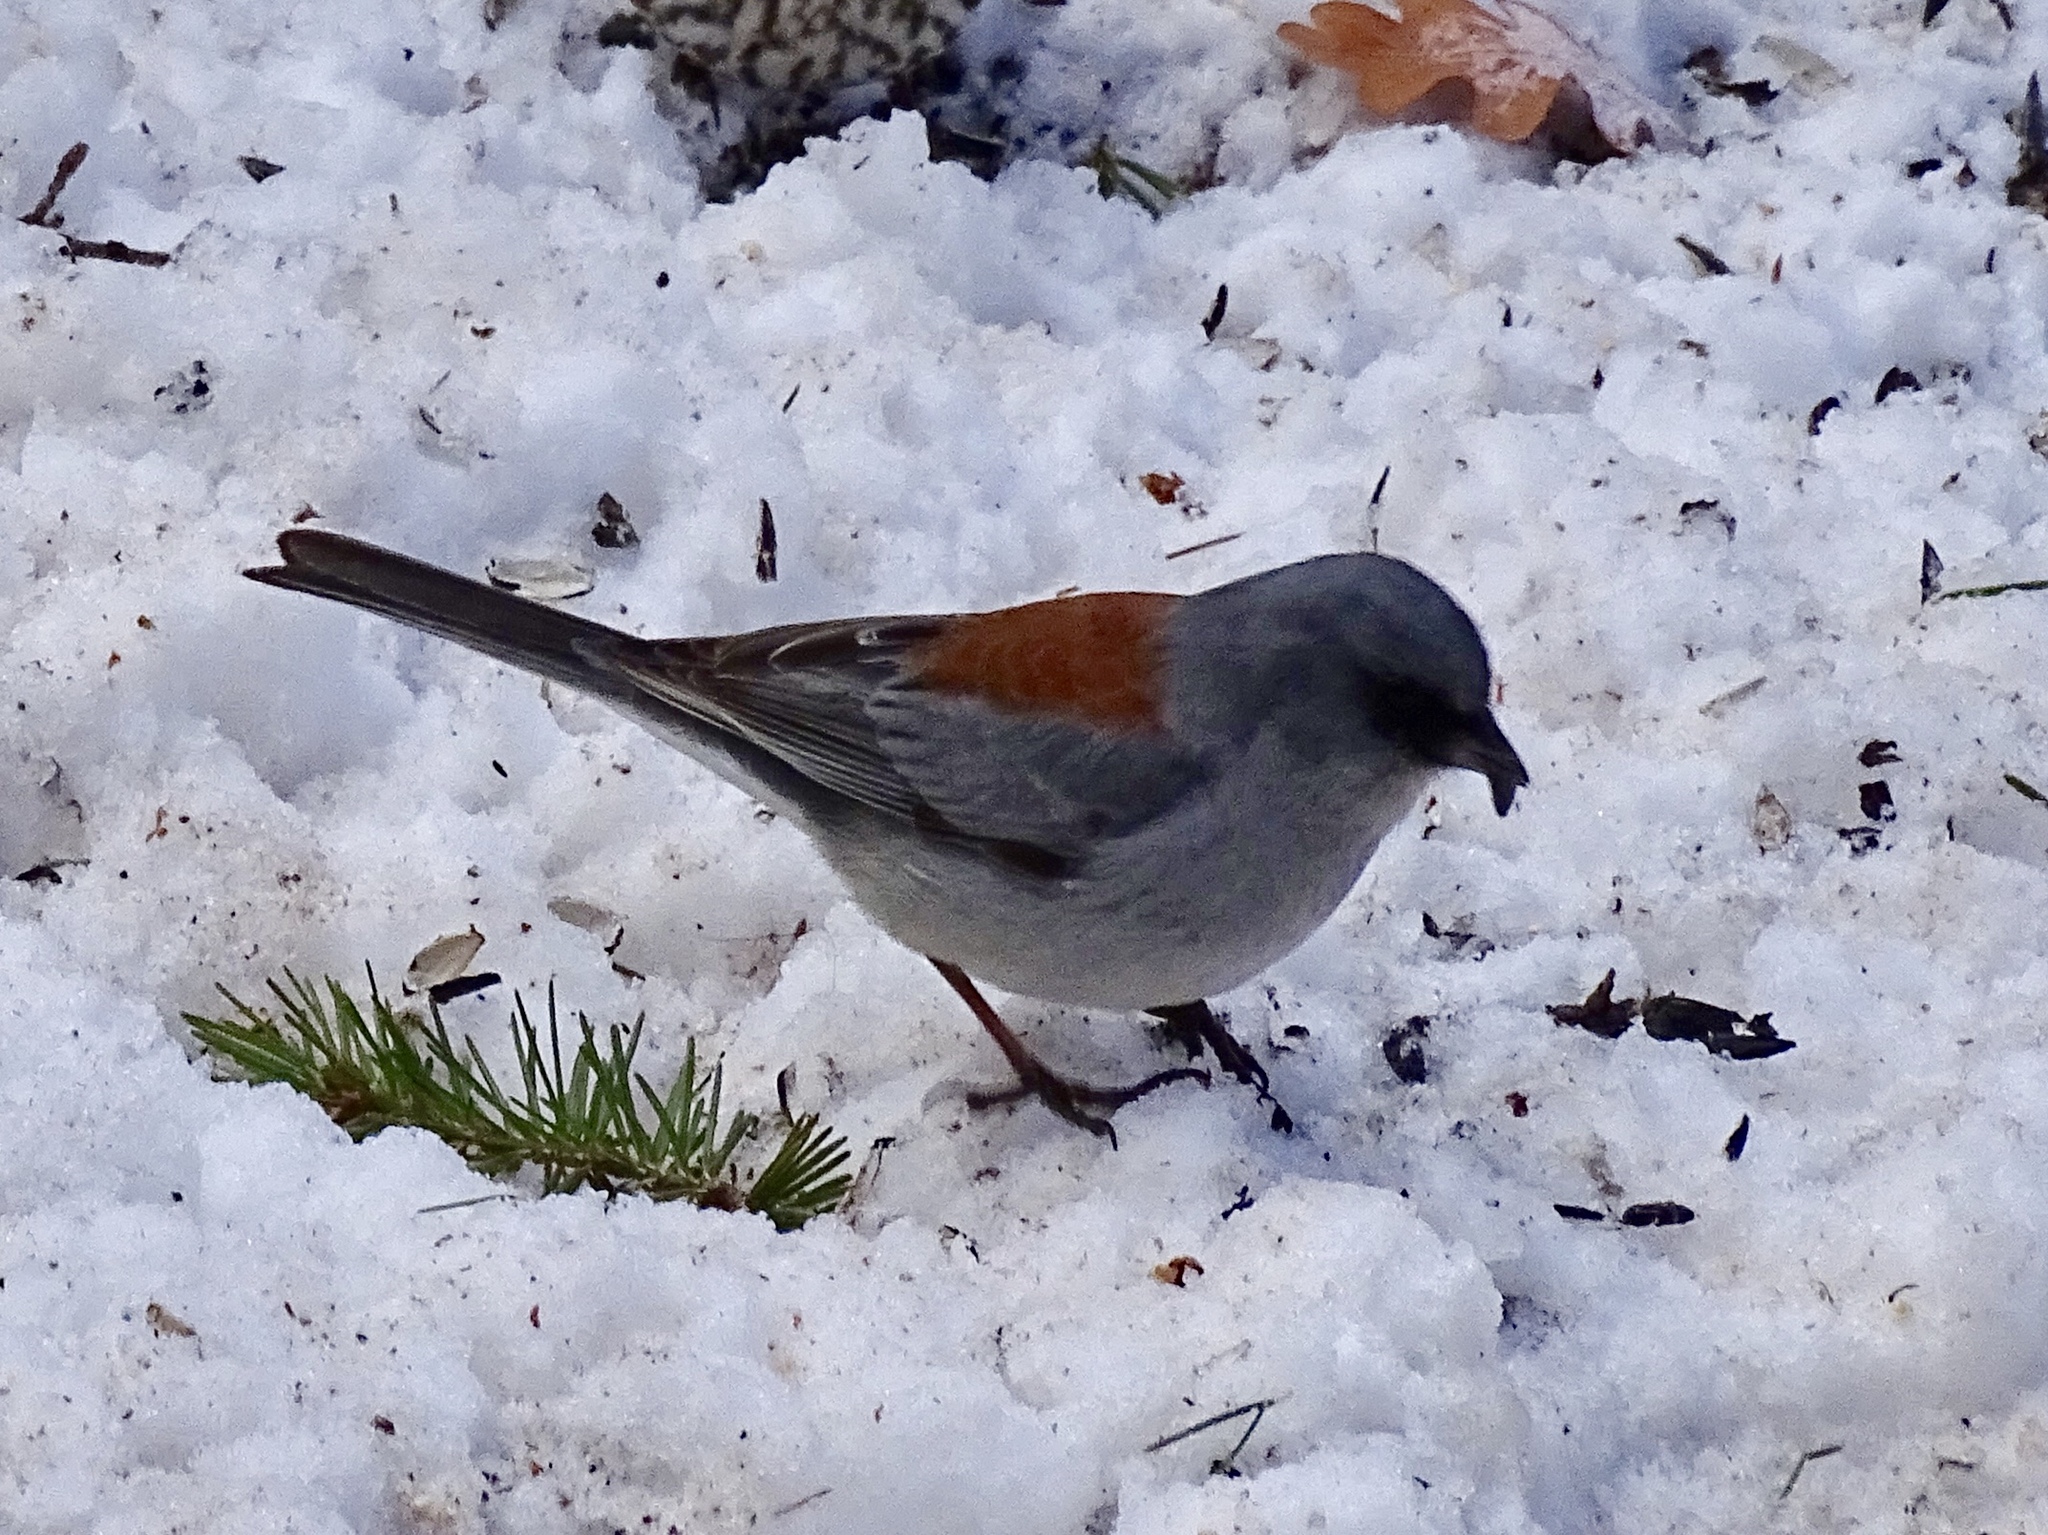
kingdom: Animalia
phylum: Chordata
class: Aves
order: Passeriformes
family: Passerellidae
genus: Junco
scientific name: Junco hyemalis
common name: Dark-eyed junco
